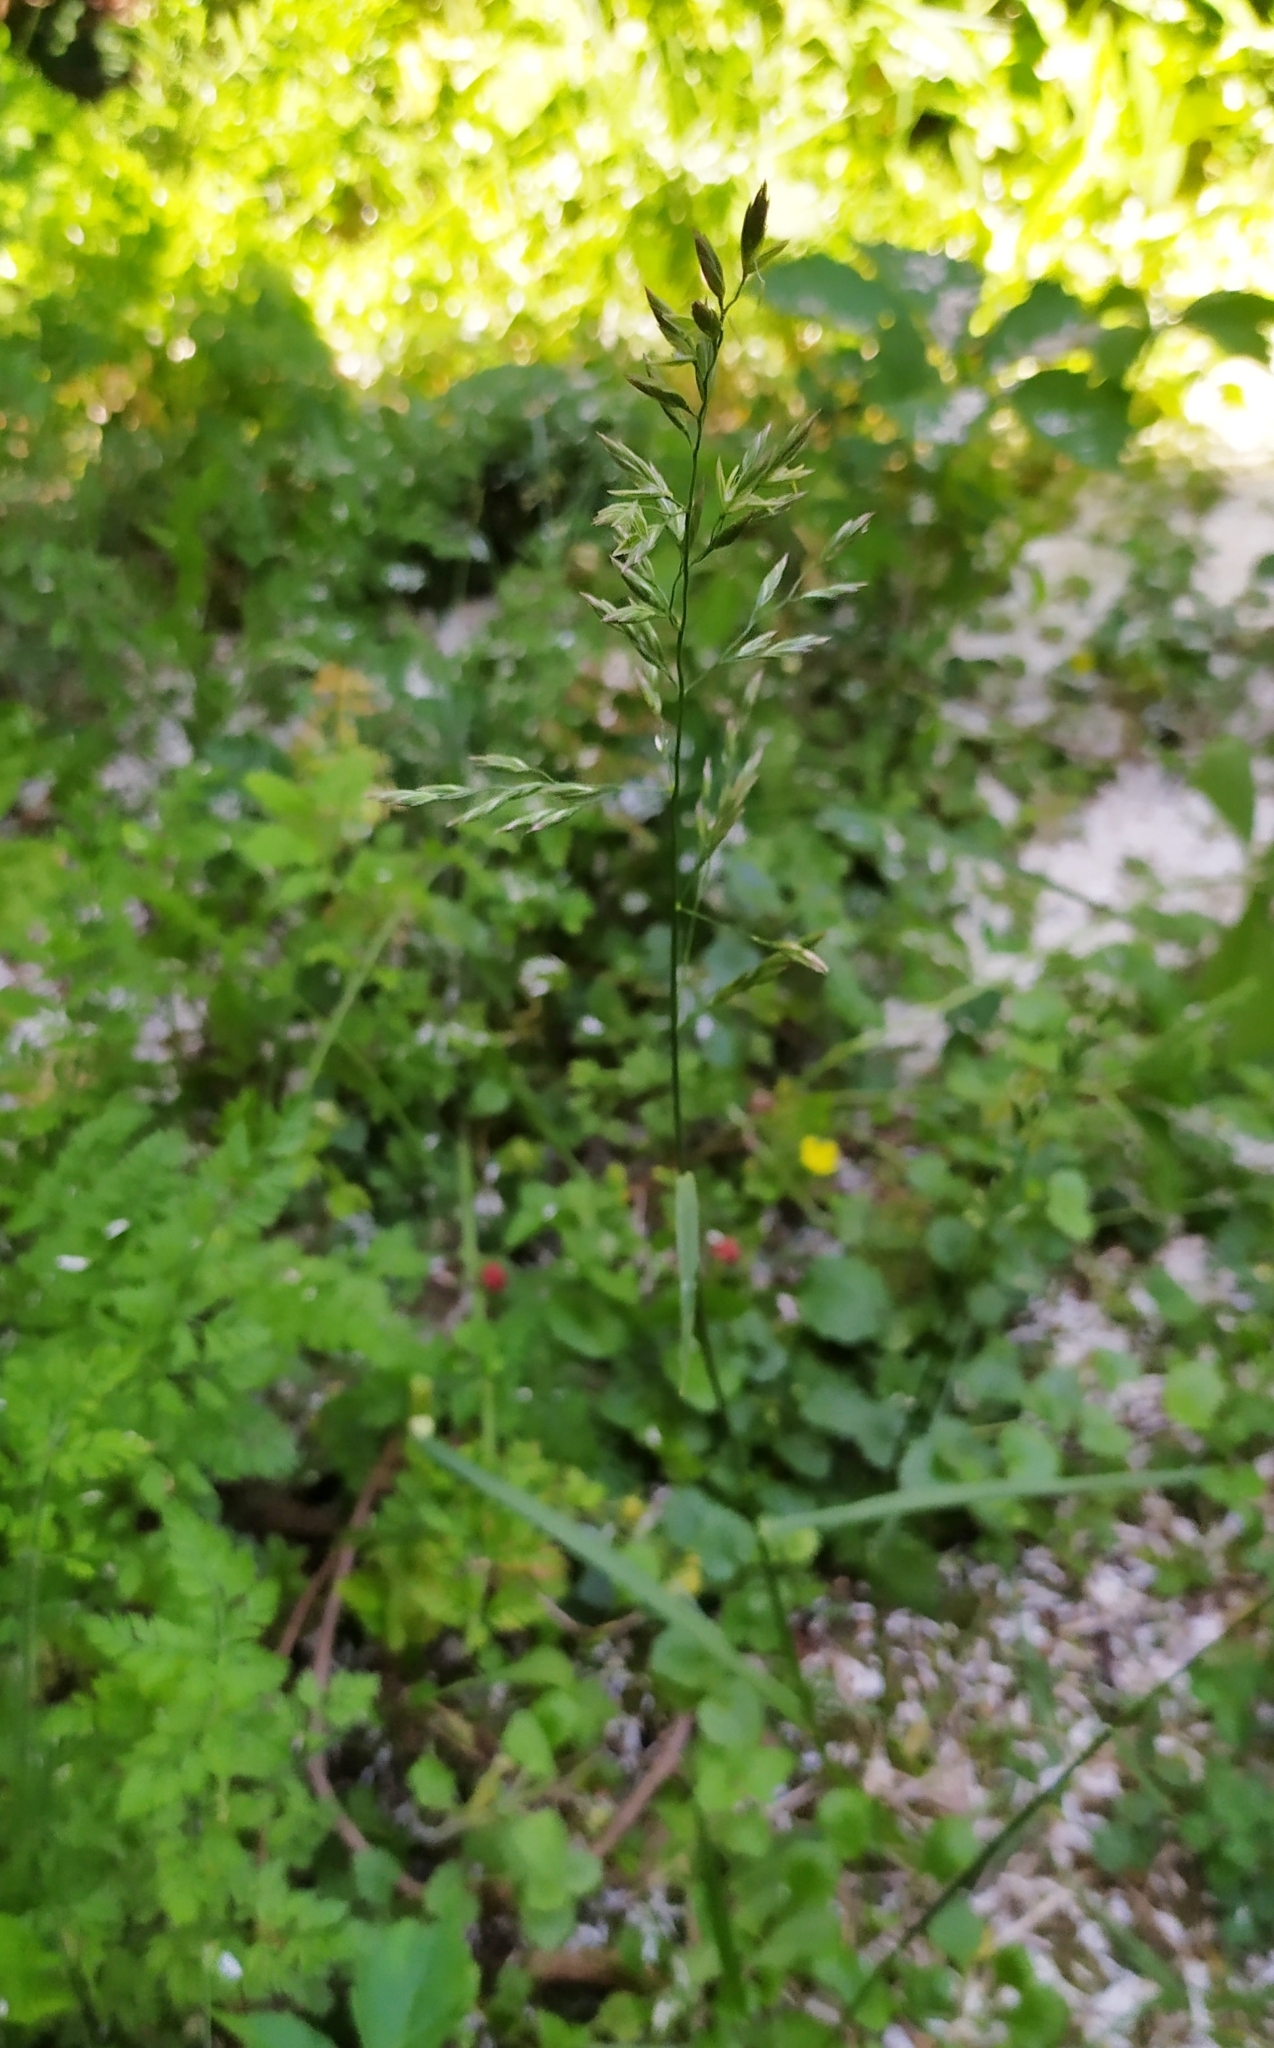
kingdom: Plantae
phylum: Tracheophyta
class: Liliopsida
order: Poales
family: Poaceae
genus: Lolium
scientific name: Lolium pratense
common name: Dover grass
